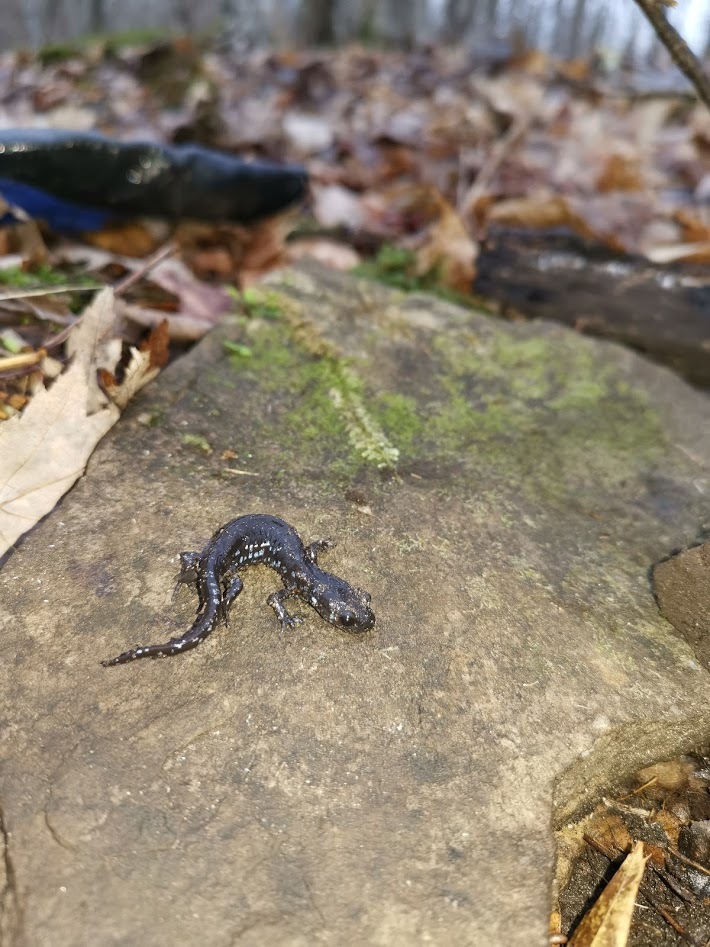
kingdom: Animalia
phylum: Chordata
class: Amphibia
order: Caudata
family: Ambystomatidae
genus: Ambystoma
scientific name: Ambystoma laterale
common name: Blue-spotted salamander
